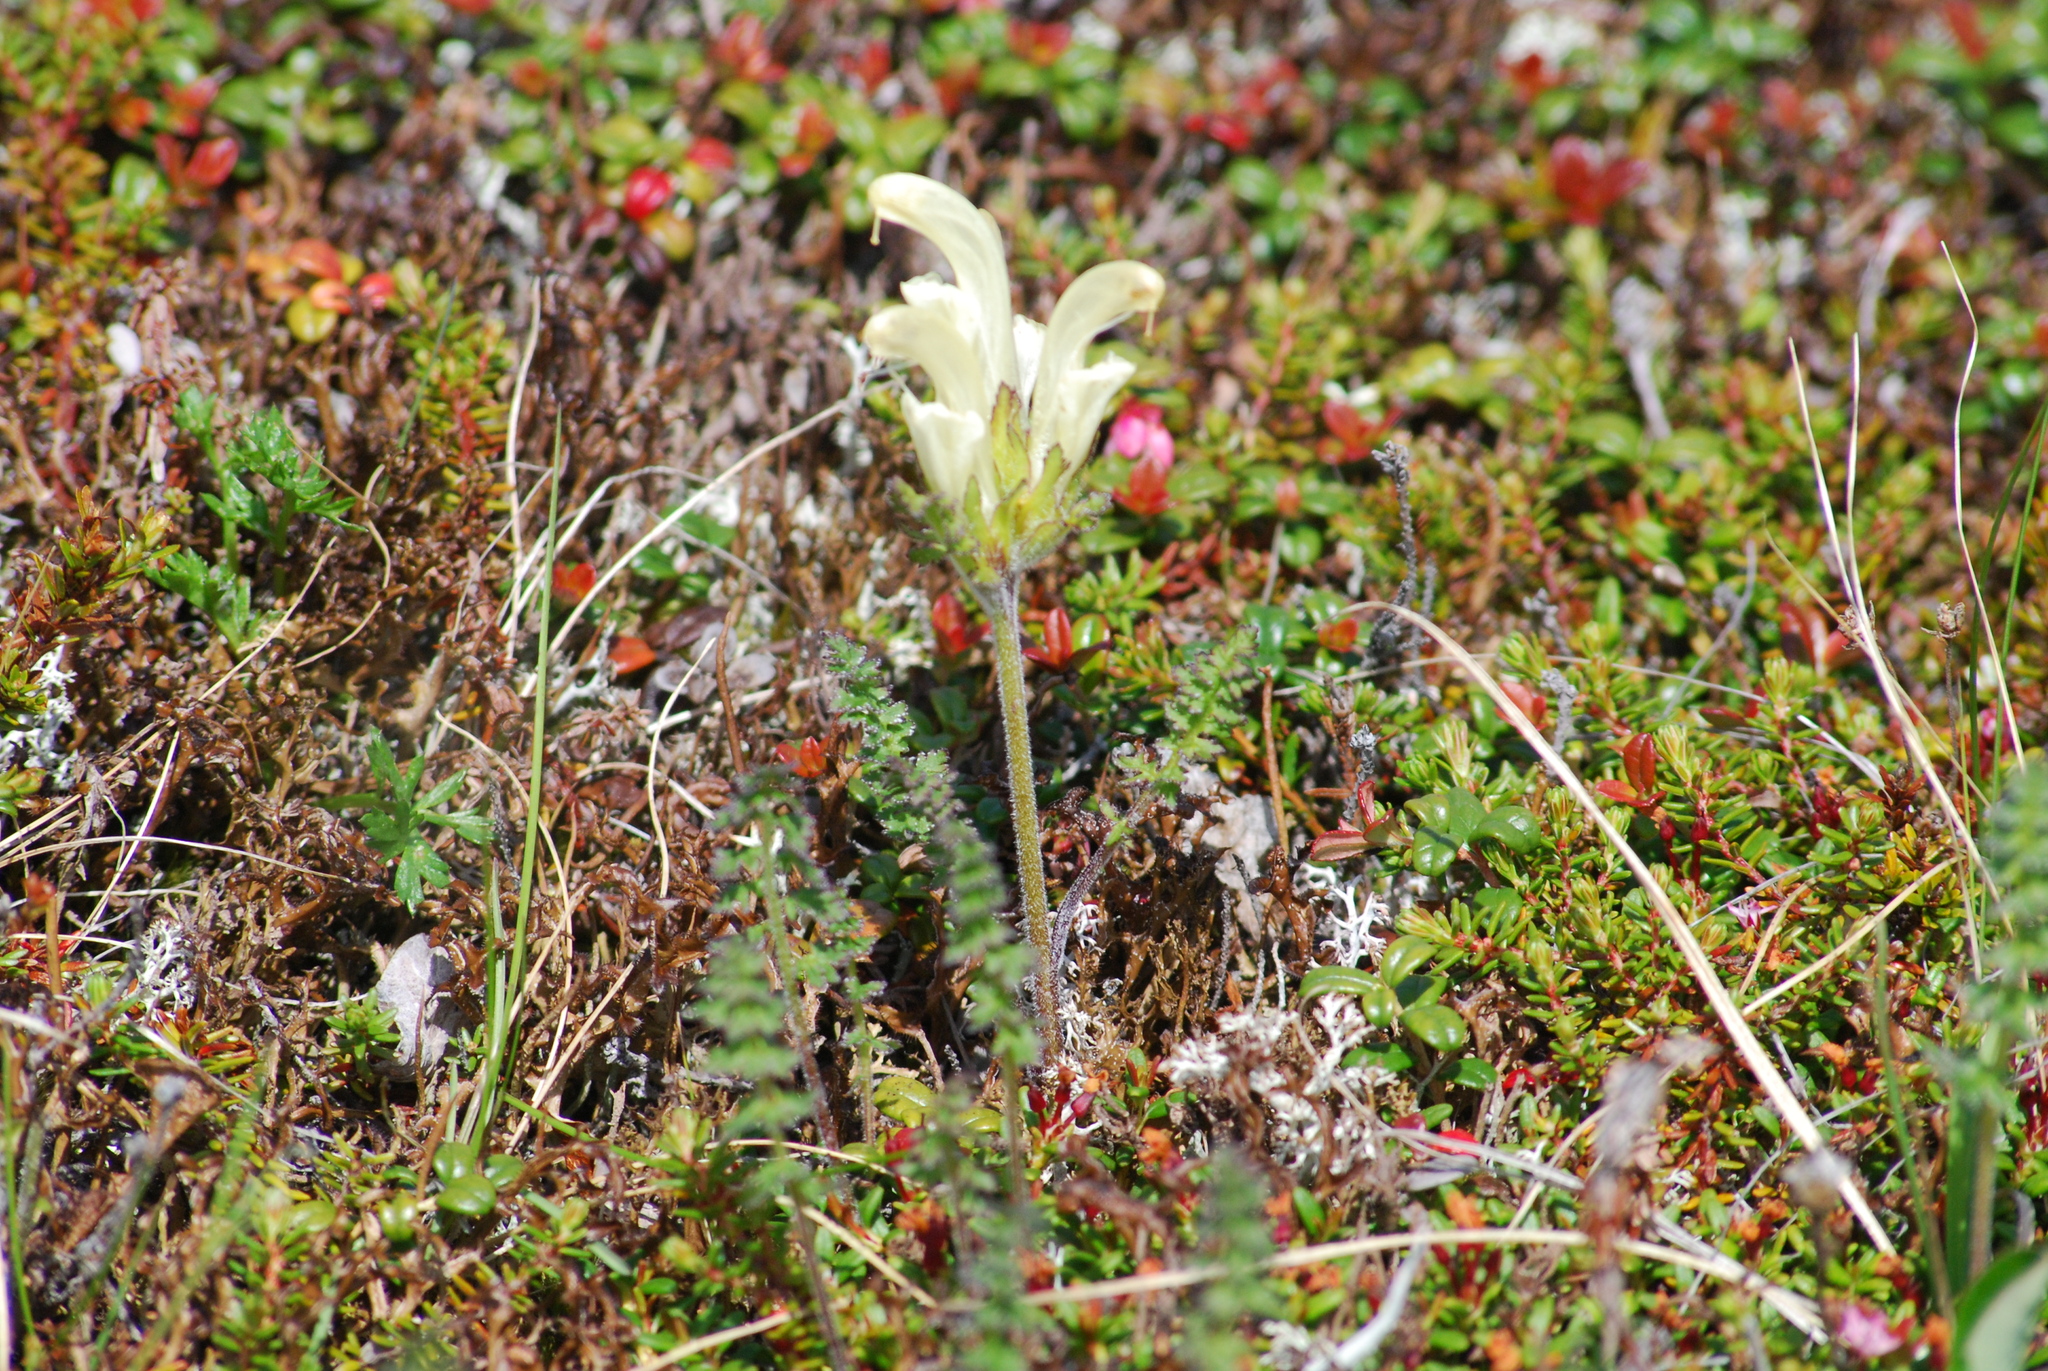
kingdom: Plantae
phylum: Tracheophyta
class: Magnoliopsida
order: Lamiales
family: Orobanchaceae
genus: Pedicularis
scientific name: Pedicularis capitata
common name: Capitate lousewort
